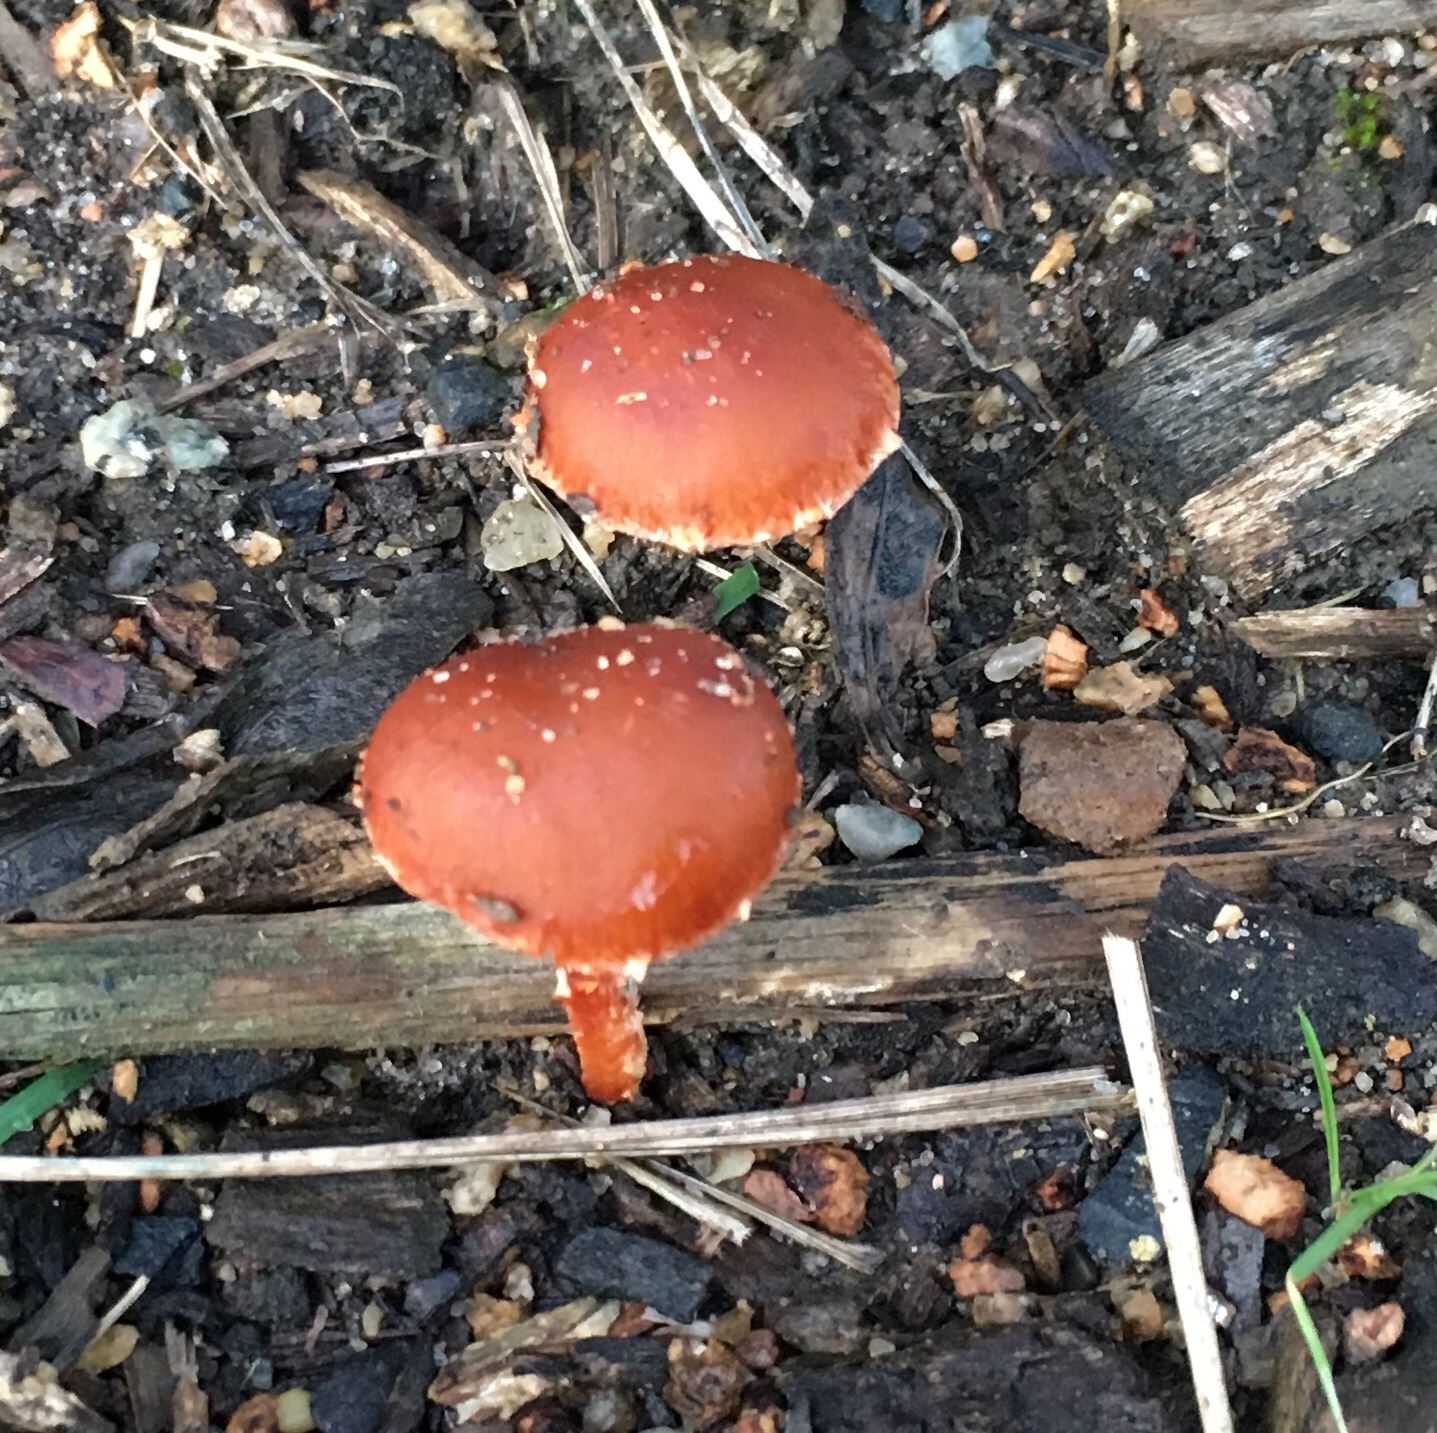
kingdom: Fungi
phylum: Basidiomycota
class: Agaricomycetes
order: Agaricales
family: Strophariaceae
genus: Leratiomyces
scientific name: Leratiomyces ceres
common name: Redlead roundhead
